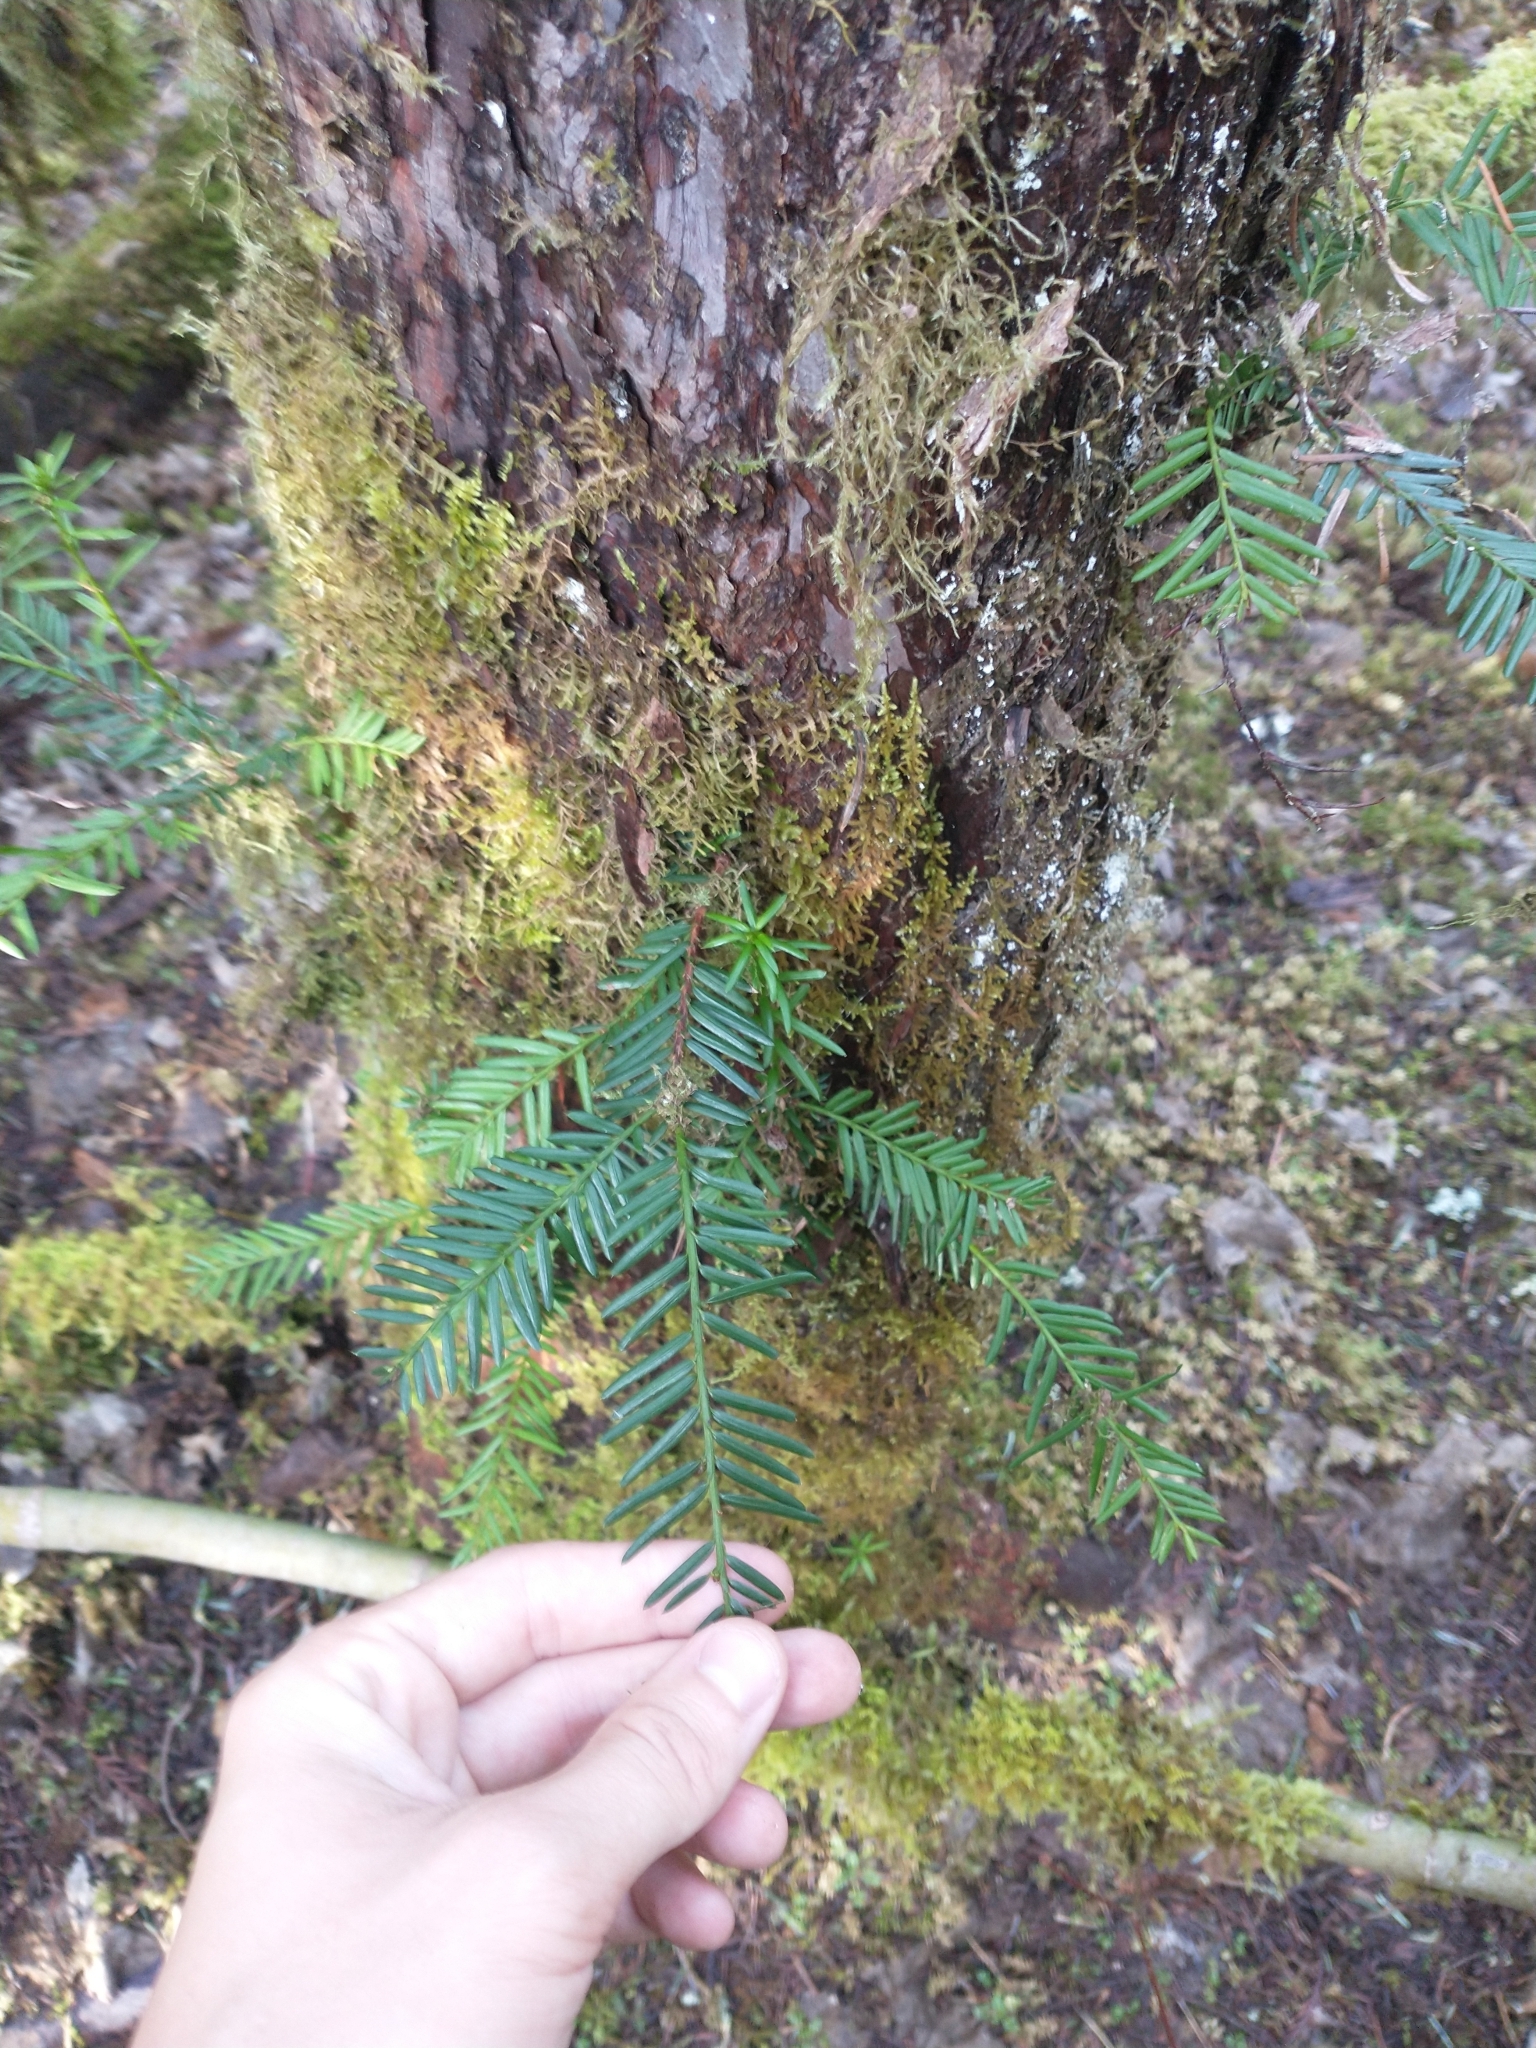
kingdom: Plantae
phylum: Tracheophyta
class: Pinopsida
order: Pinales
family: Taxaceae
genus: Taxus
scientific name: Taxus brevifolia
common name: Pacific yew
